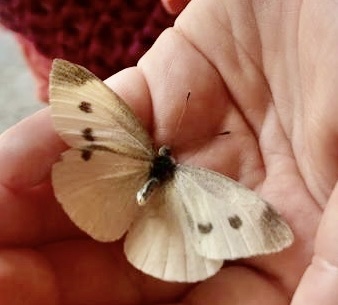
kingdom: Animalia
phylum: Arthropoda
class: Insecta
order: Lepidoptera
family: Pieridae
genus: Pieris
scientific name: Pieris rapae
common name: Small white
